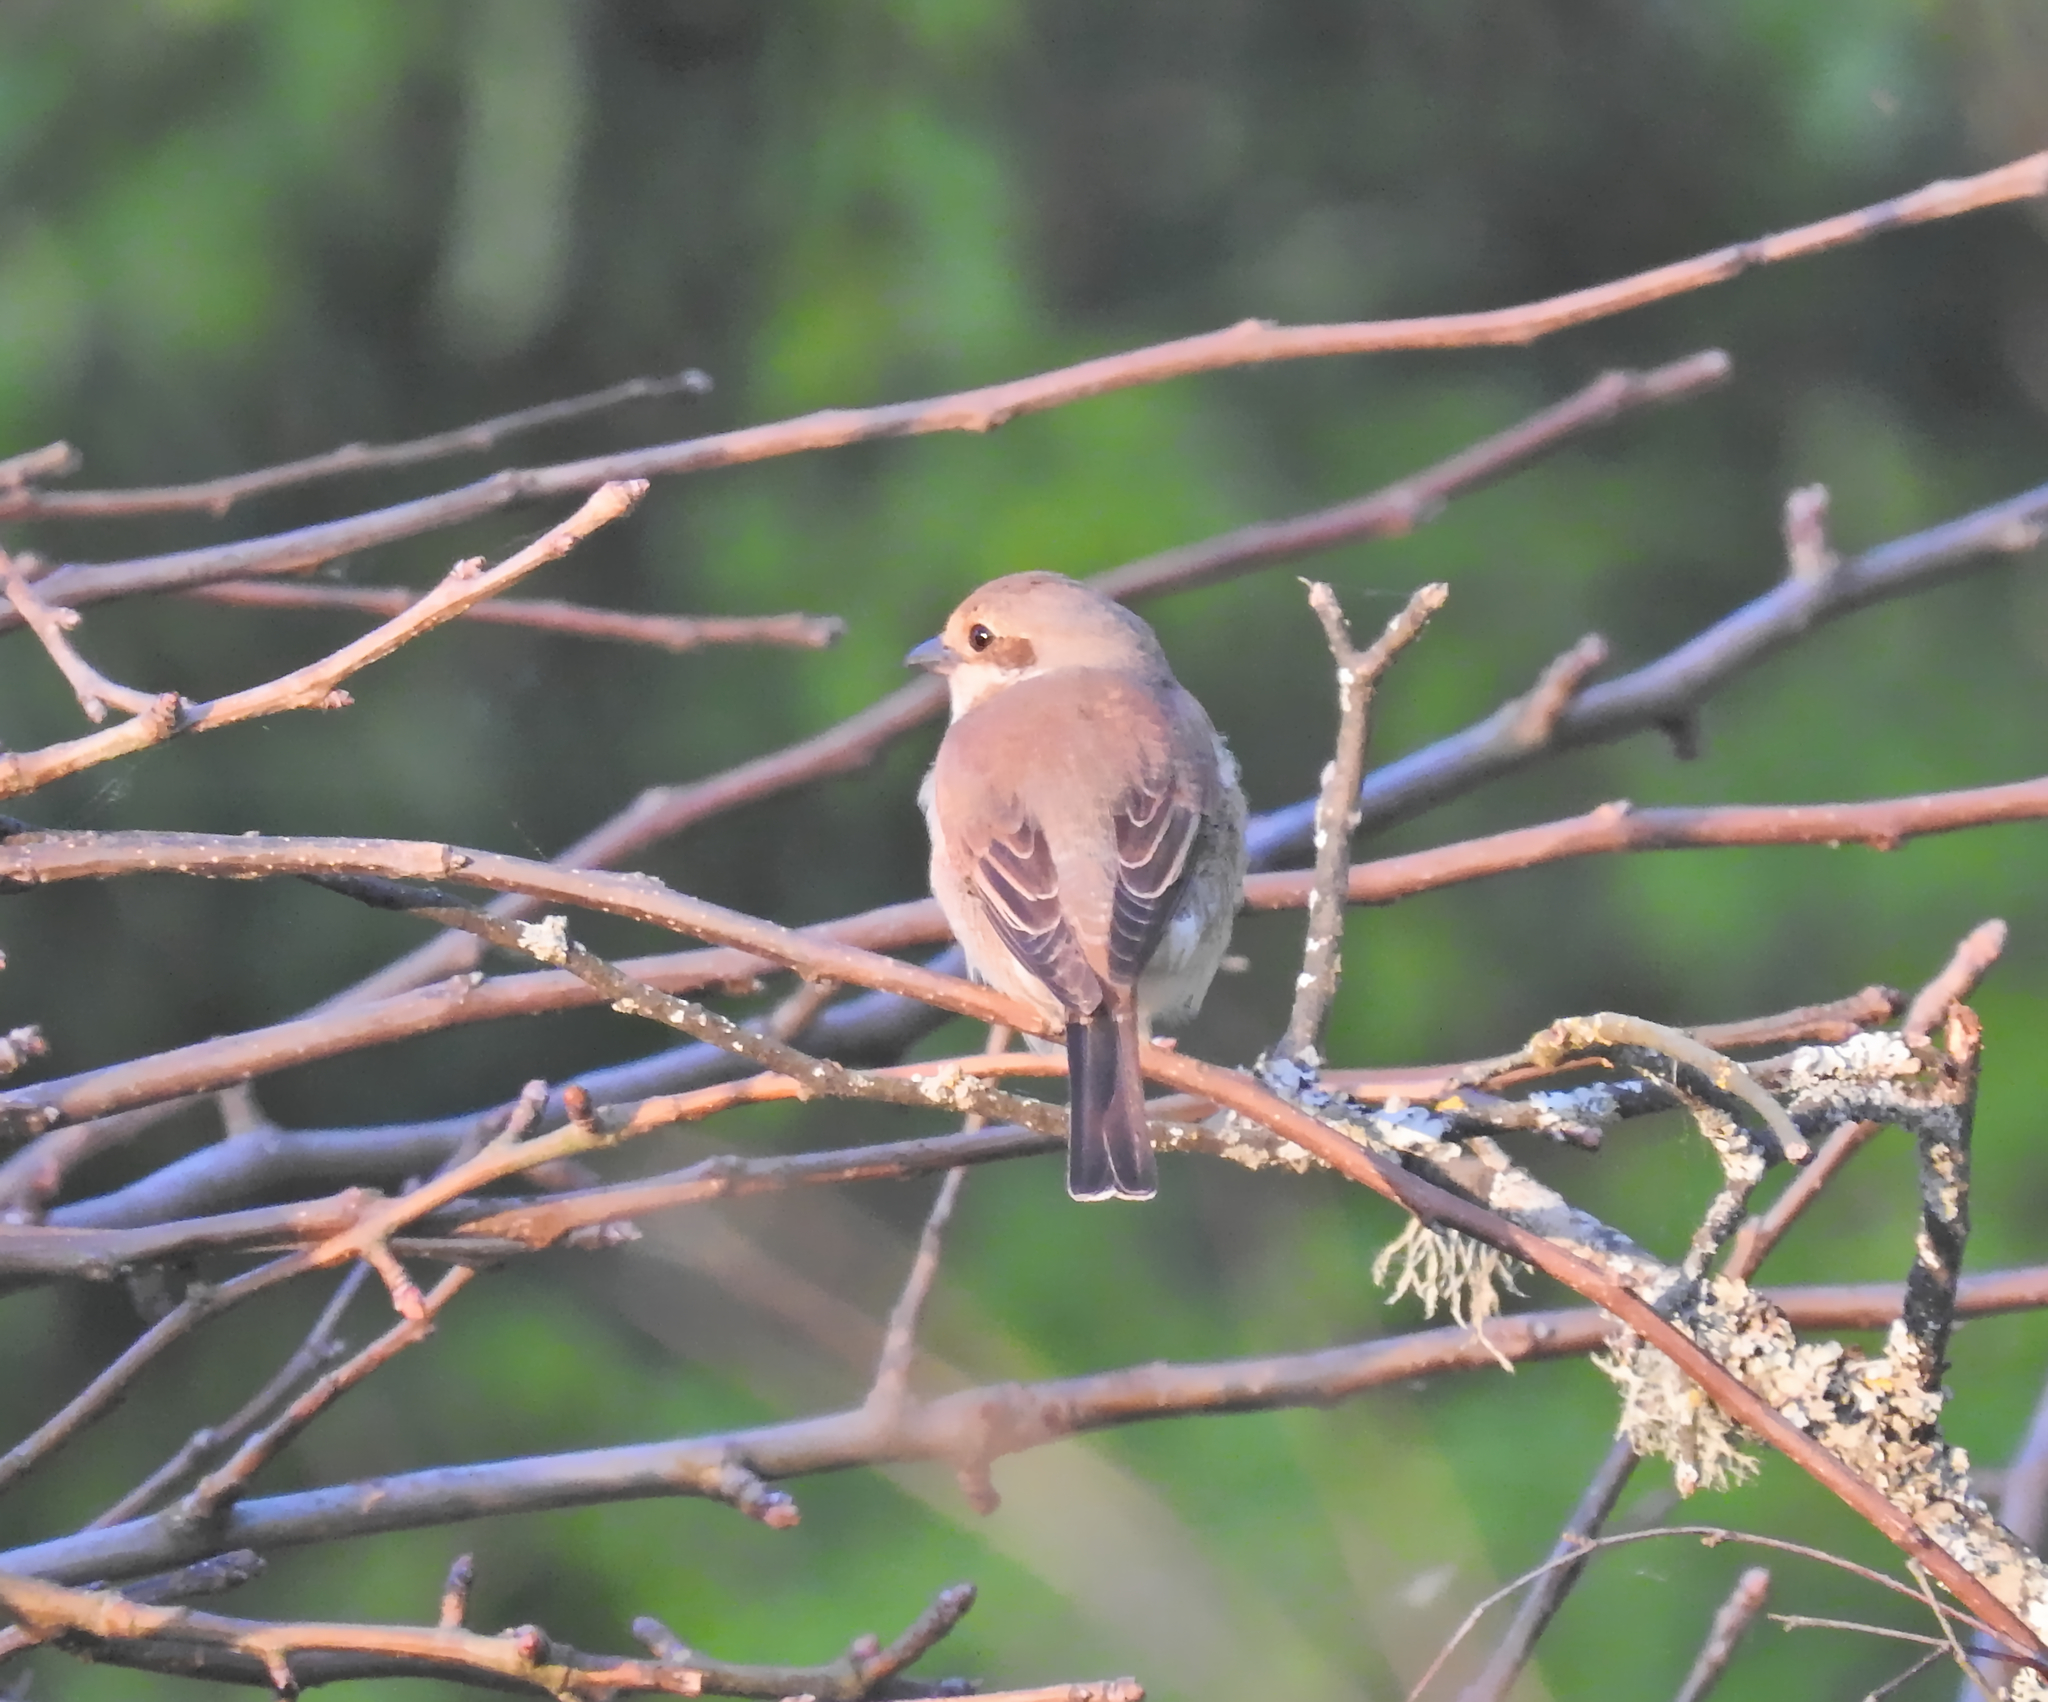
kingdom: Animalia
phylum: Chordata
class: Aves
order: Passeriformes
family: Laniidae
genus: Lanius
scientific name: Lanius collurio
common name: Red-backed shrike
